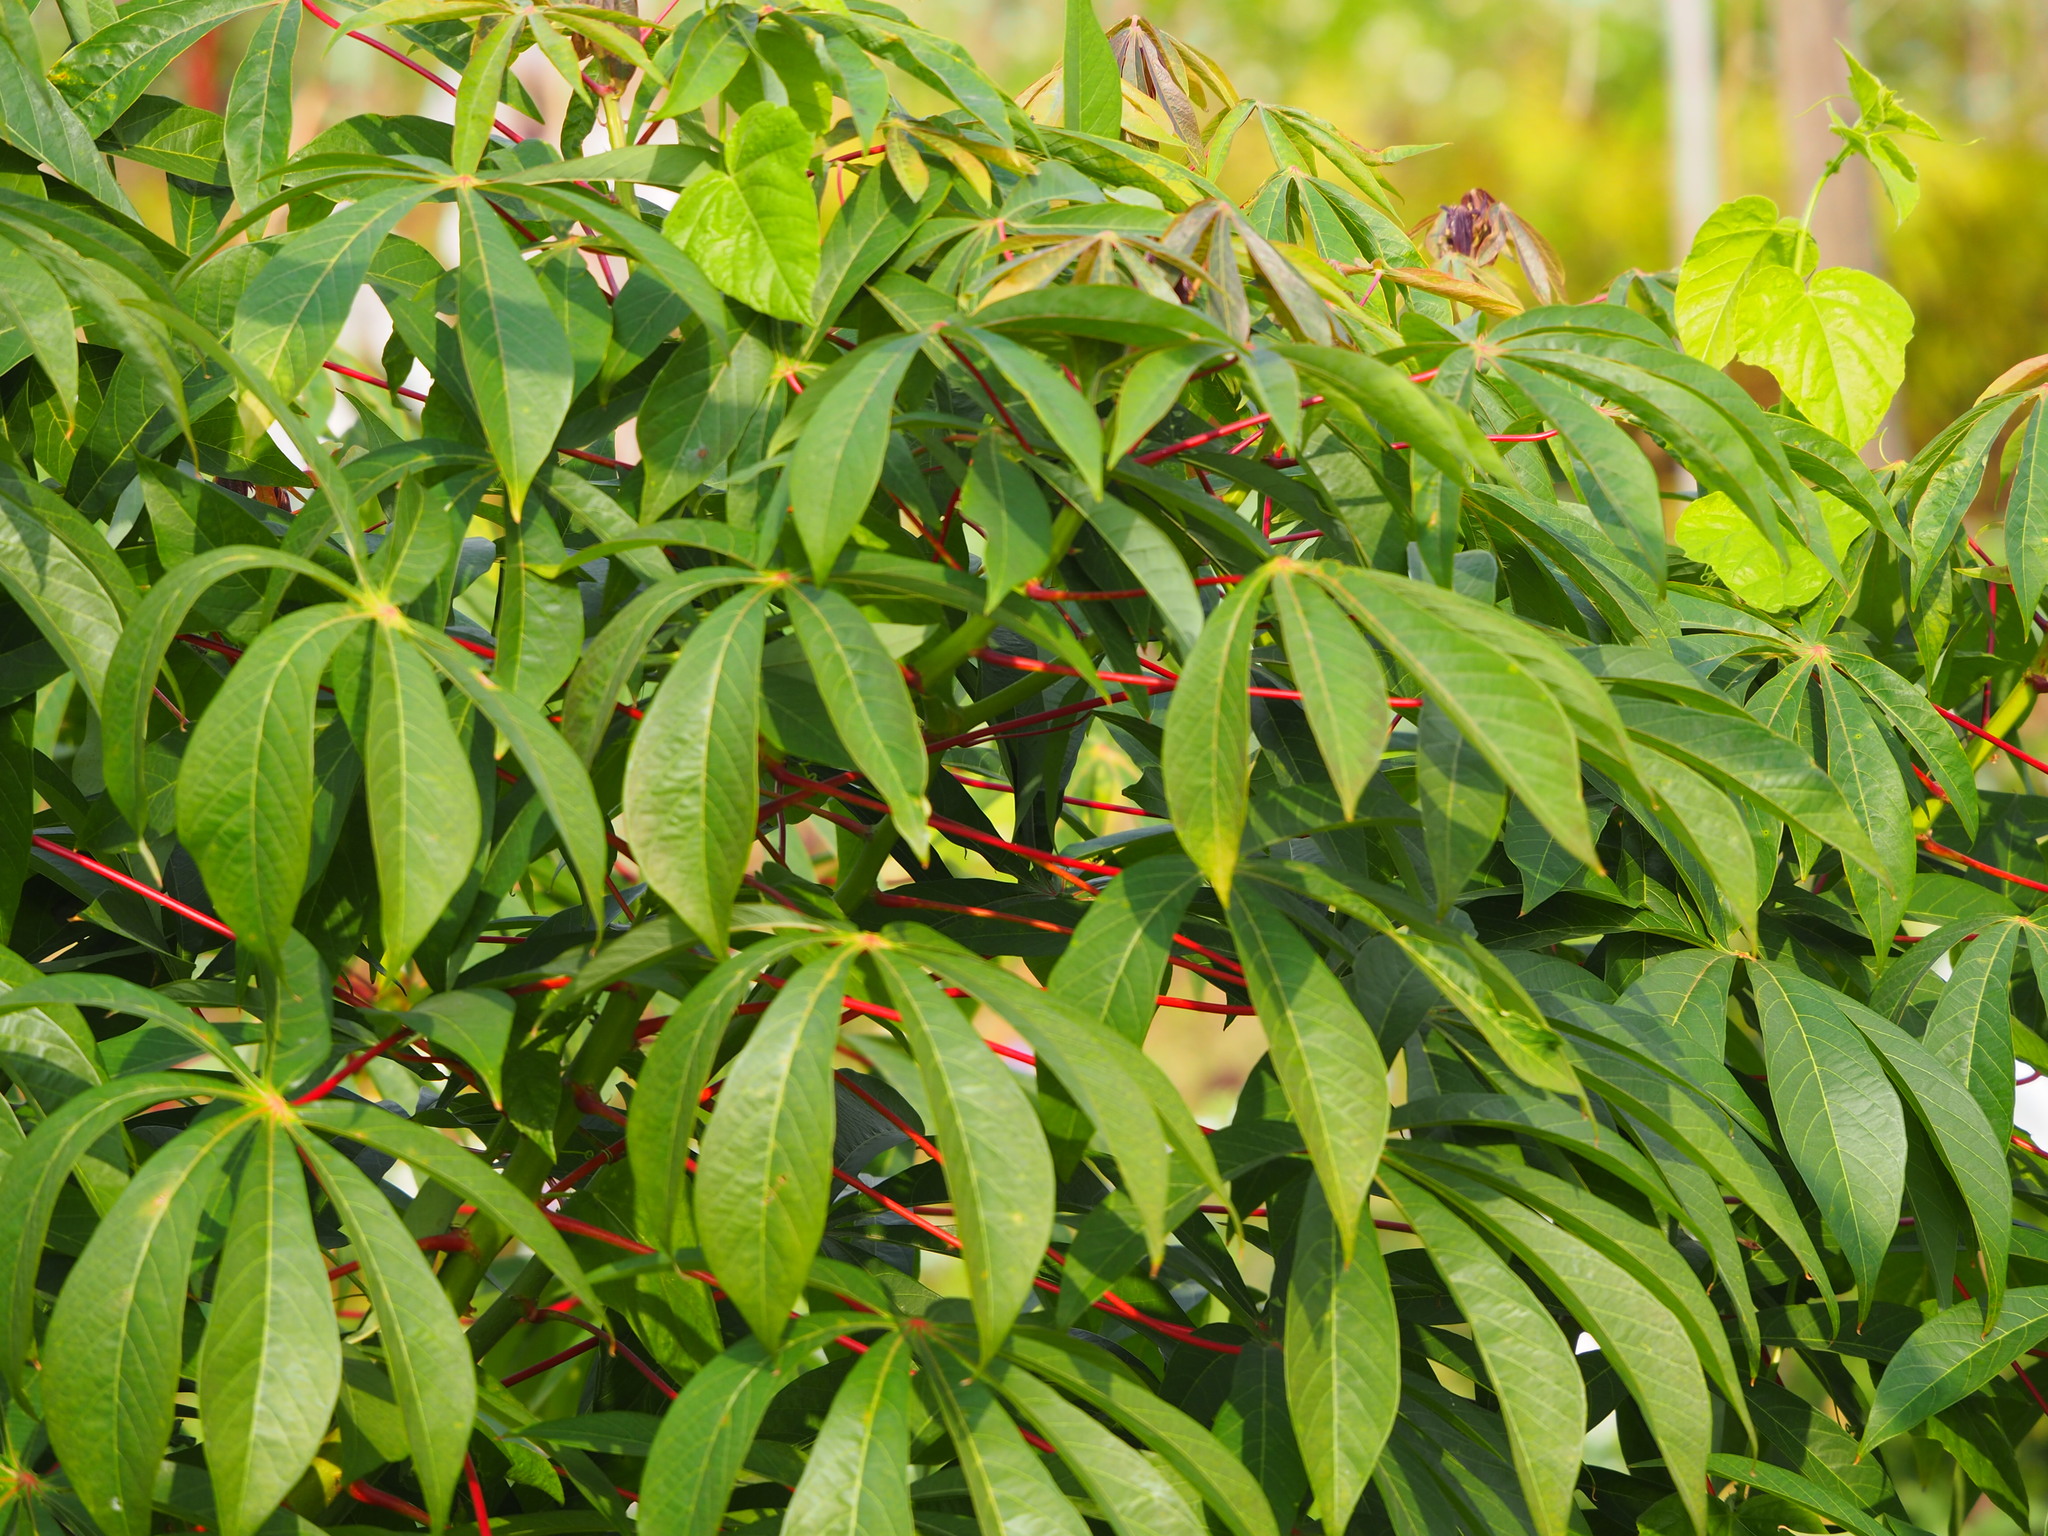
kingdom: Plantae
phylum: Tracheophyta
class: Magnoliopsida
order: Malpighiales
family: Euphorbiaceae
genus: Manihot
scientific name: Manihot esculenta
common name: Cassava
